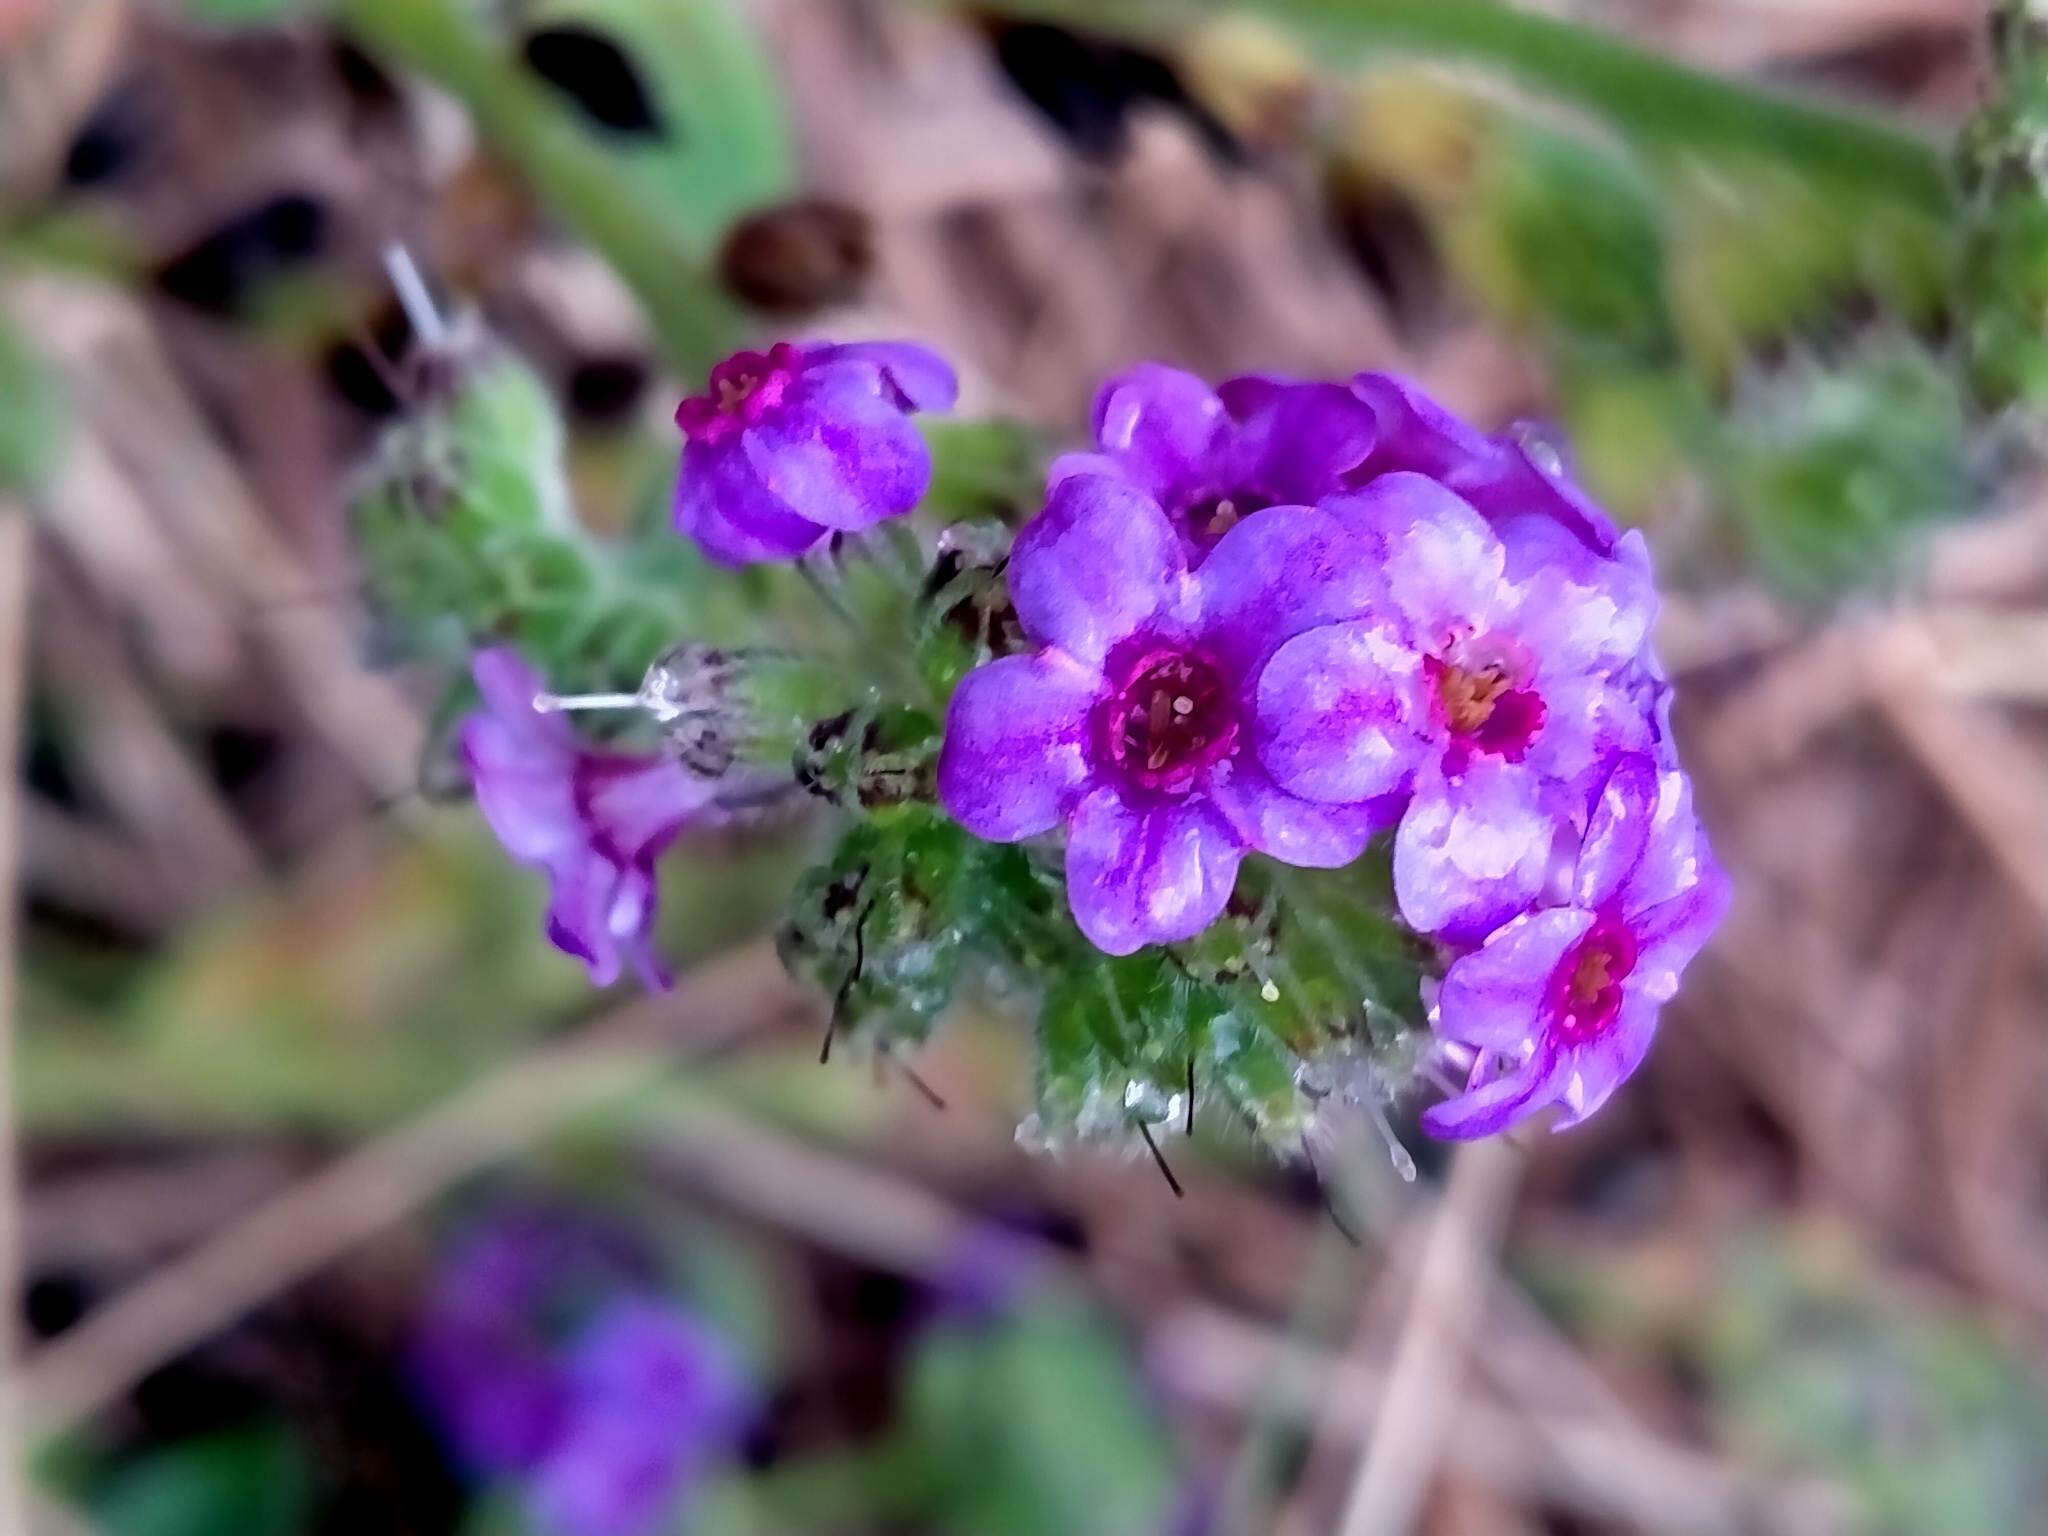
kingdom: Plantae
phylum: Tracheophyta
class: Magnoliopsida
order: Boraginales
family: Boraginaceae
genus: Myosotis
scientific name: Myosotis capitata
